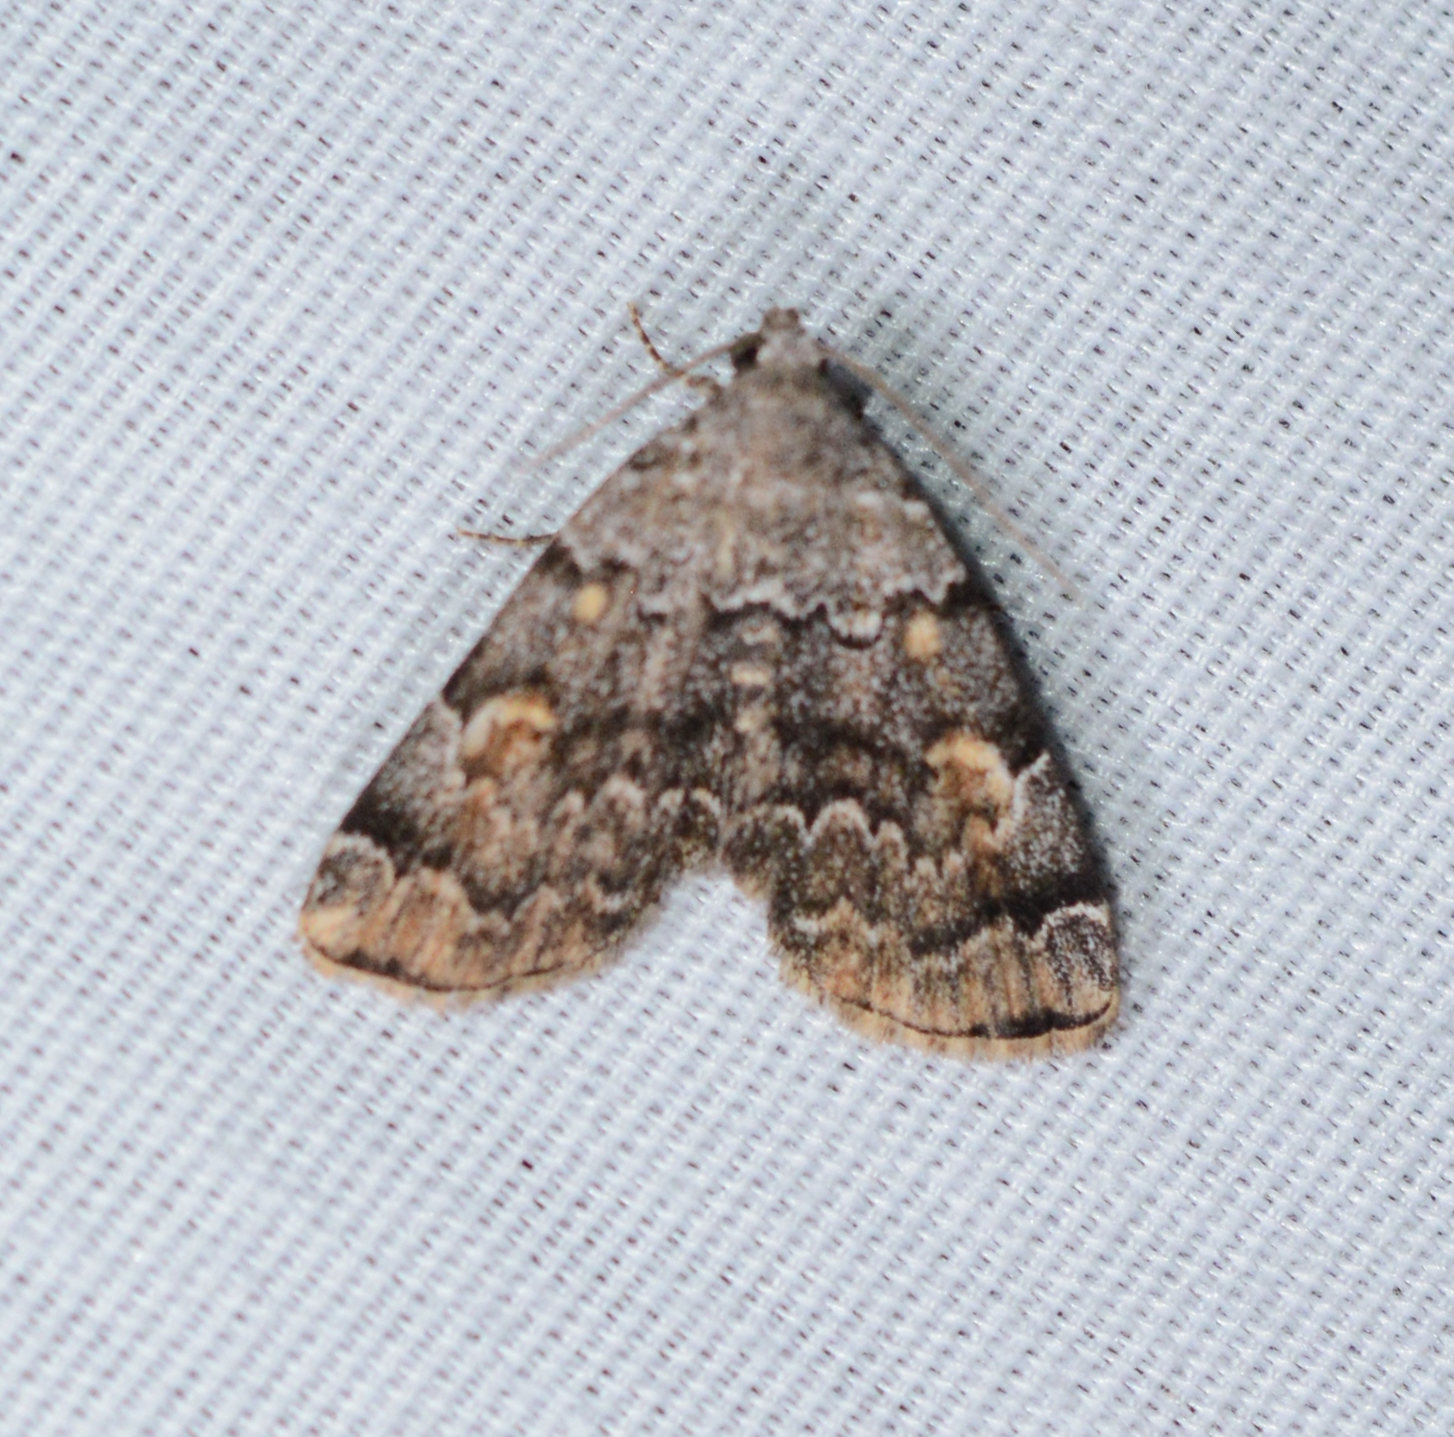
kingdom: Animalia
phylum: Arthropoda
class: Insecta
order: Lepidoptera
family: Erebidae
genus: Idia
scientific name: Idia americalis
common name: American idia moth
